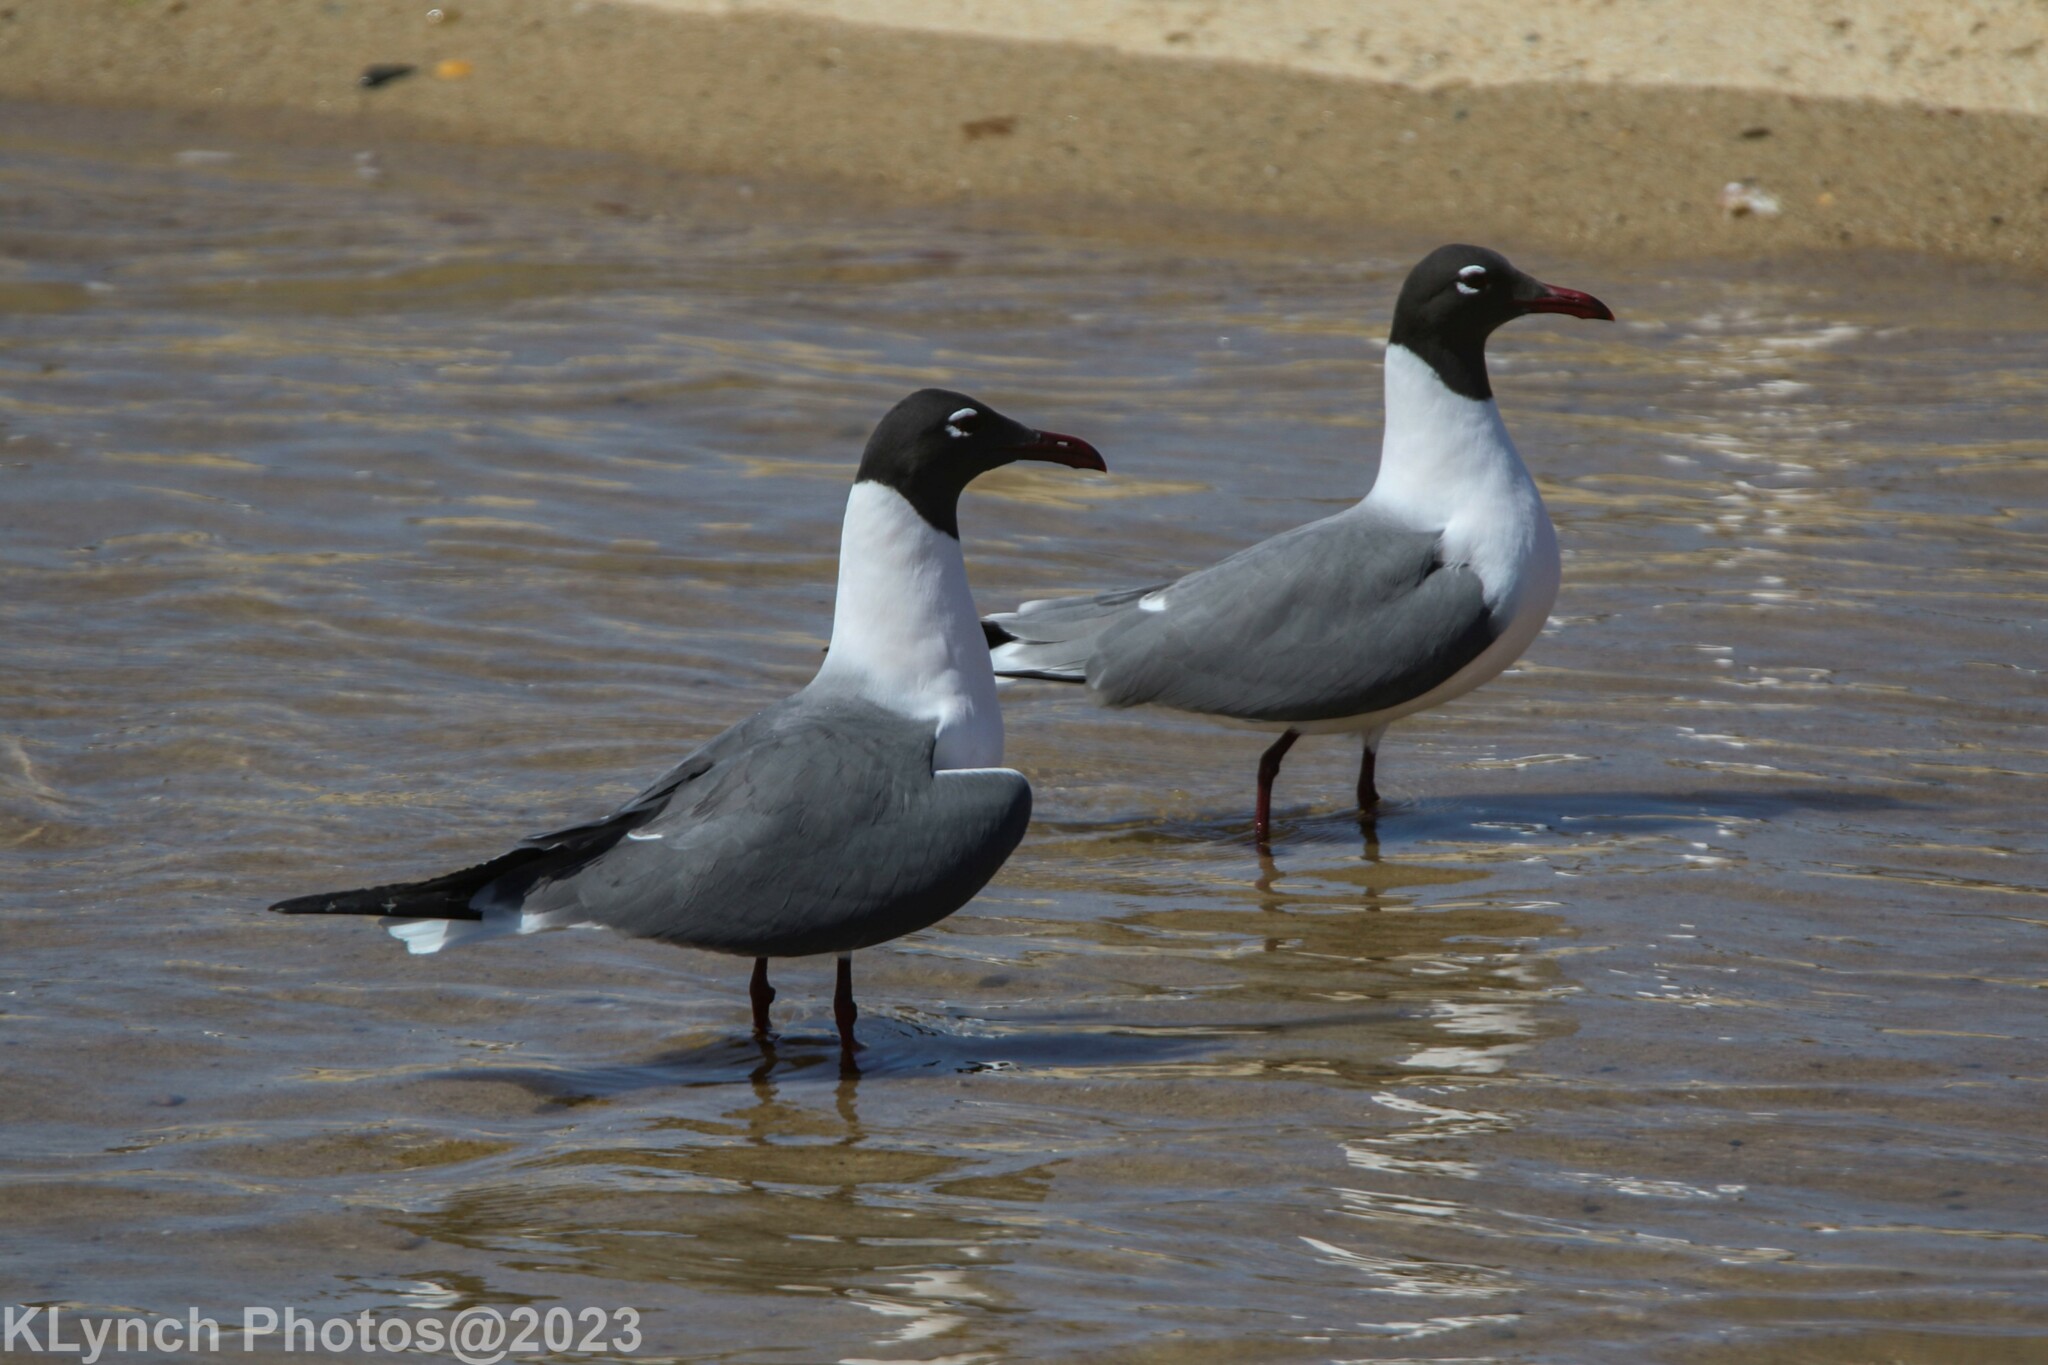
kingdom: Animalia
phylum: Chordata
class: Aves
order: Charadriiformes
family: Laridae
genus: Leucophaeus
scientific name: Leucophaeus atricilla
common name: Laughing gull
